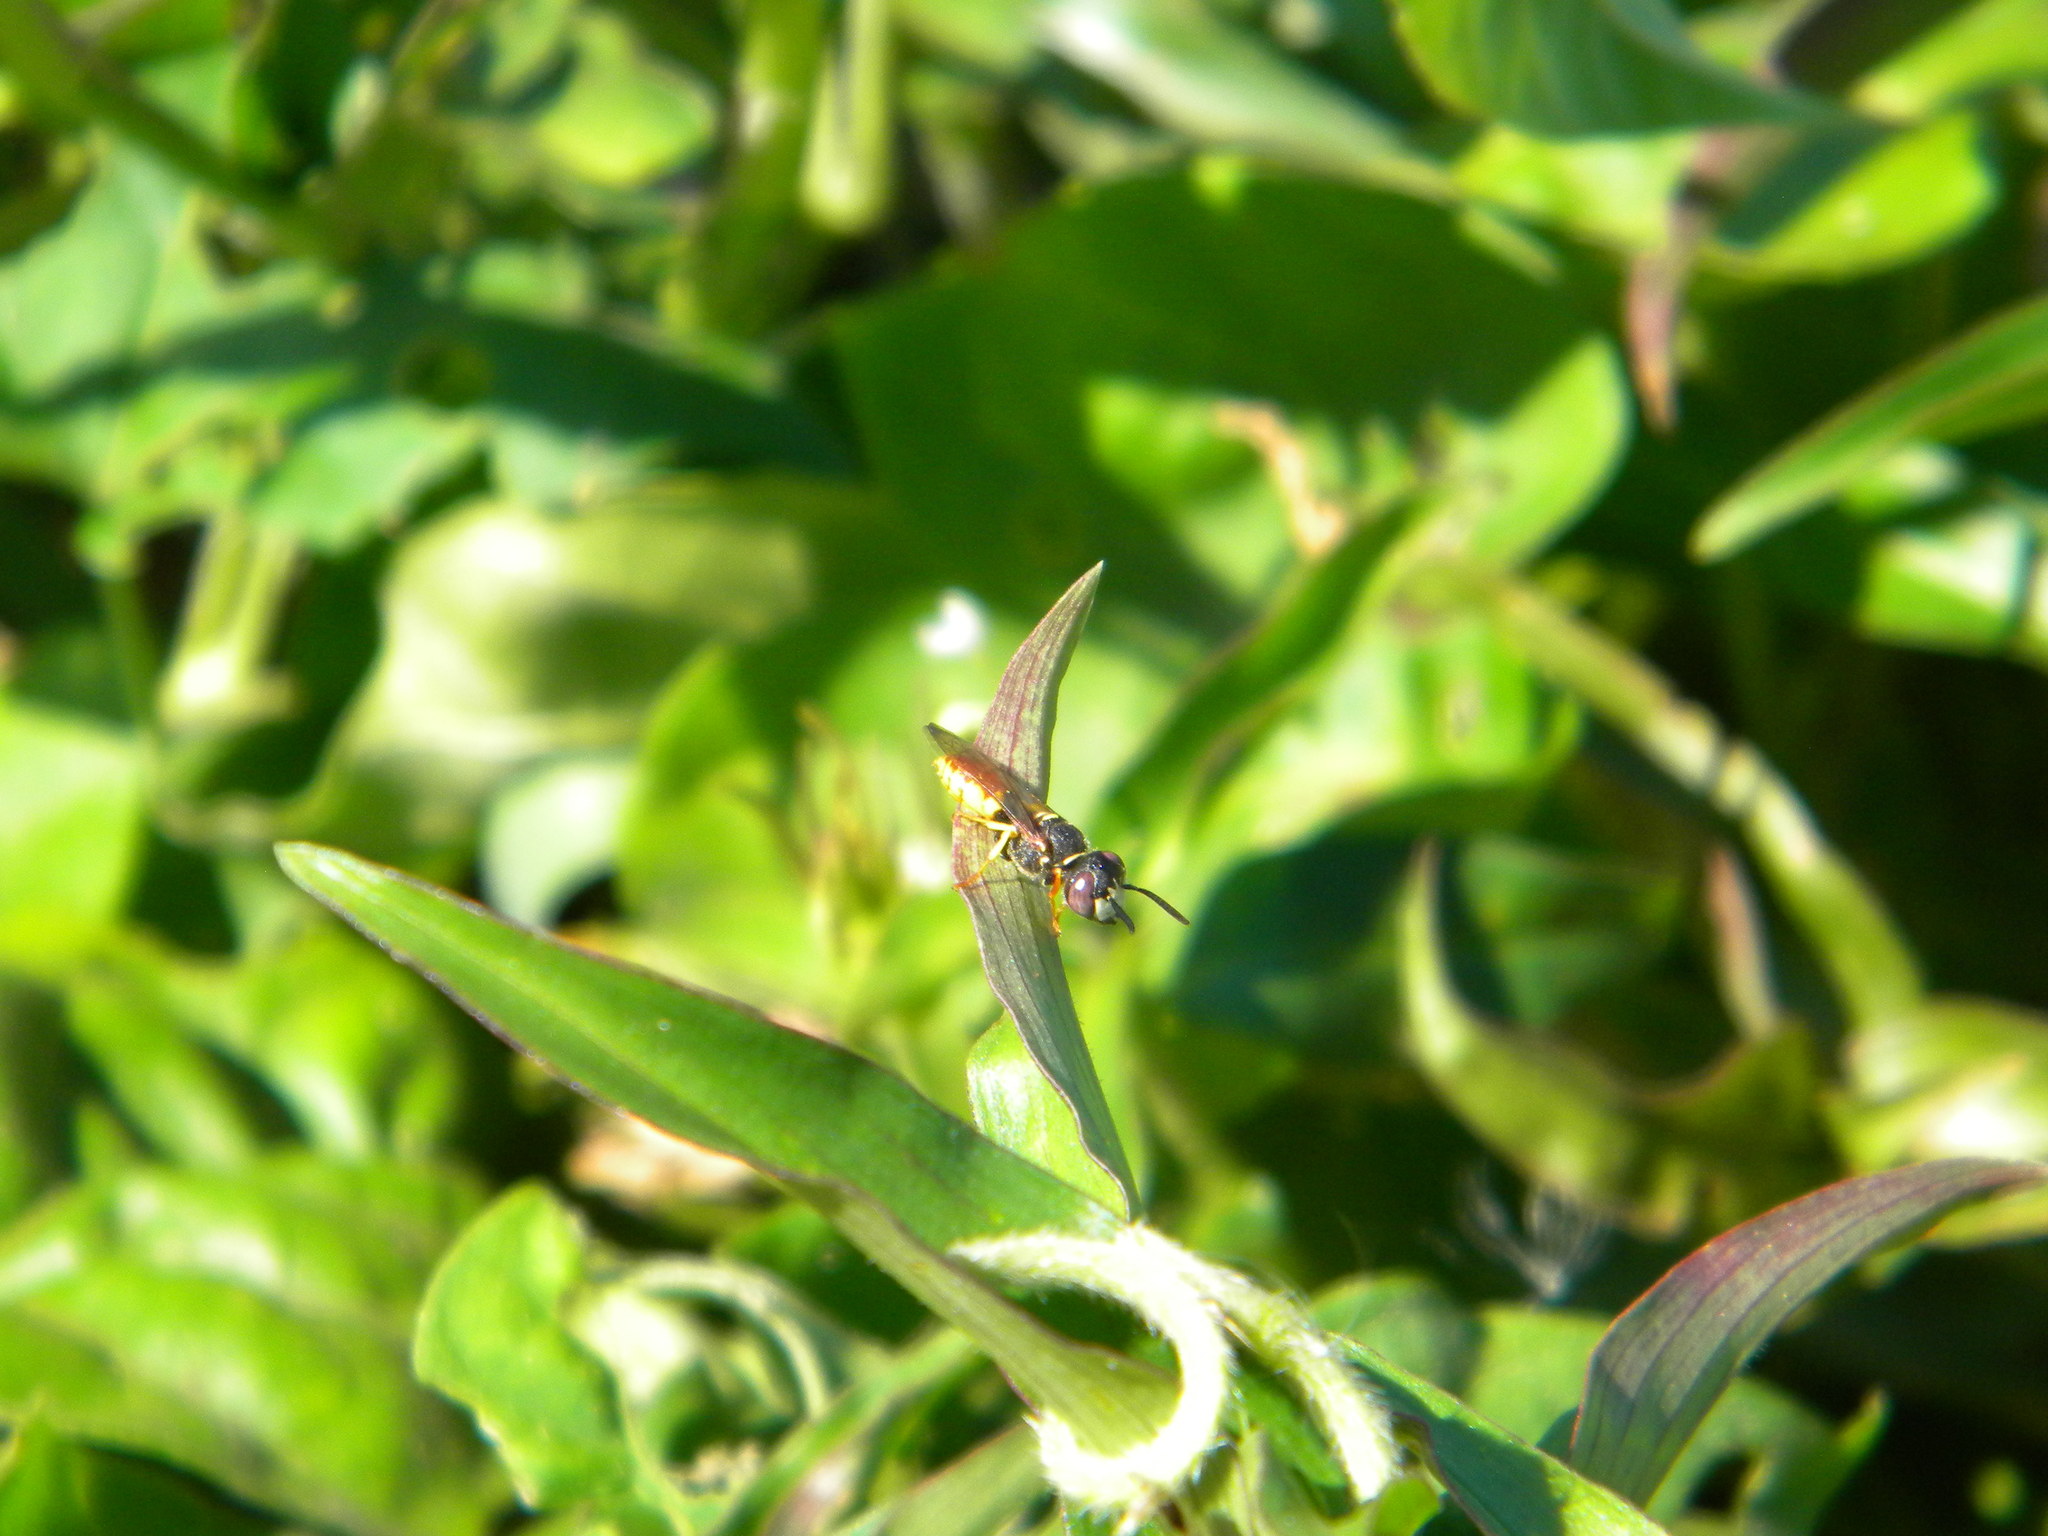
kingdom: Animalia
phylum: Arthropoda
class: Insecta
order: Hymenoptera
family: Crabronidae
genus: Philanthus
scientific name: Philanthus triangulum
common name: Bee wolf
